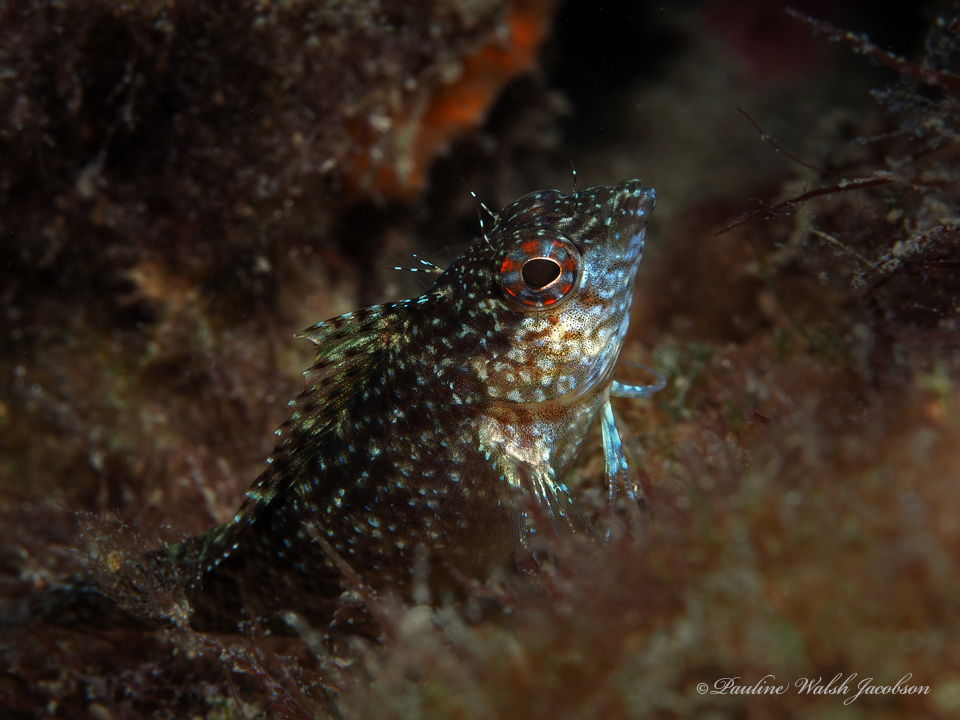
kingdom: Animalia
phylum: Chordata
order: Perciformes
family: Labrisomidae
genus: Malacoctenus
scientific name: Malacoctenus macropus
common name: Rosy blenny
